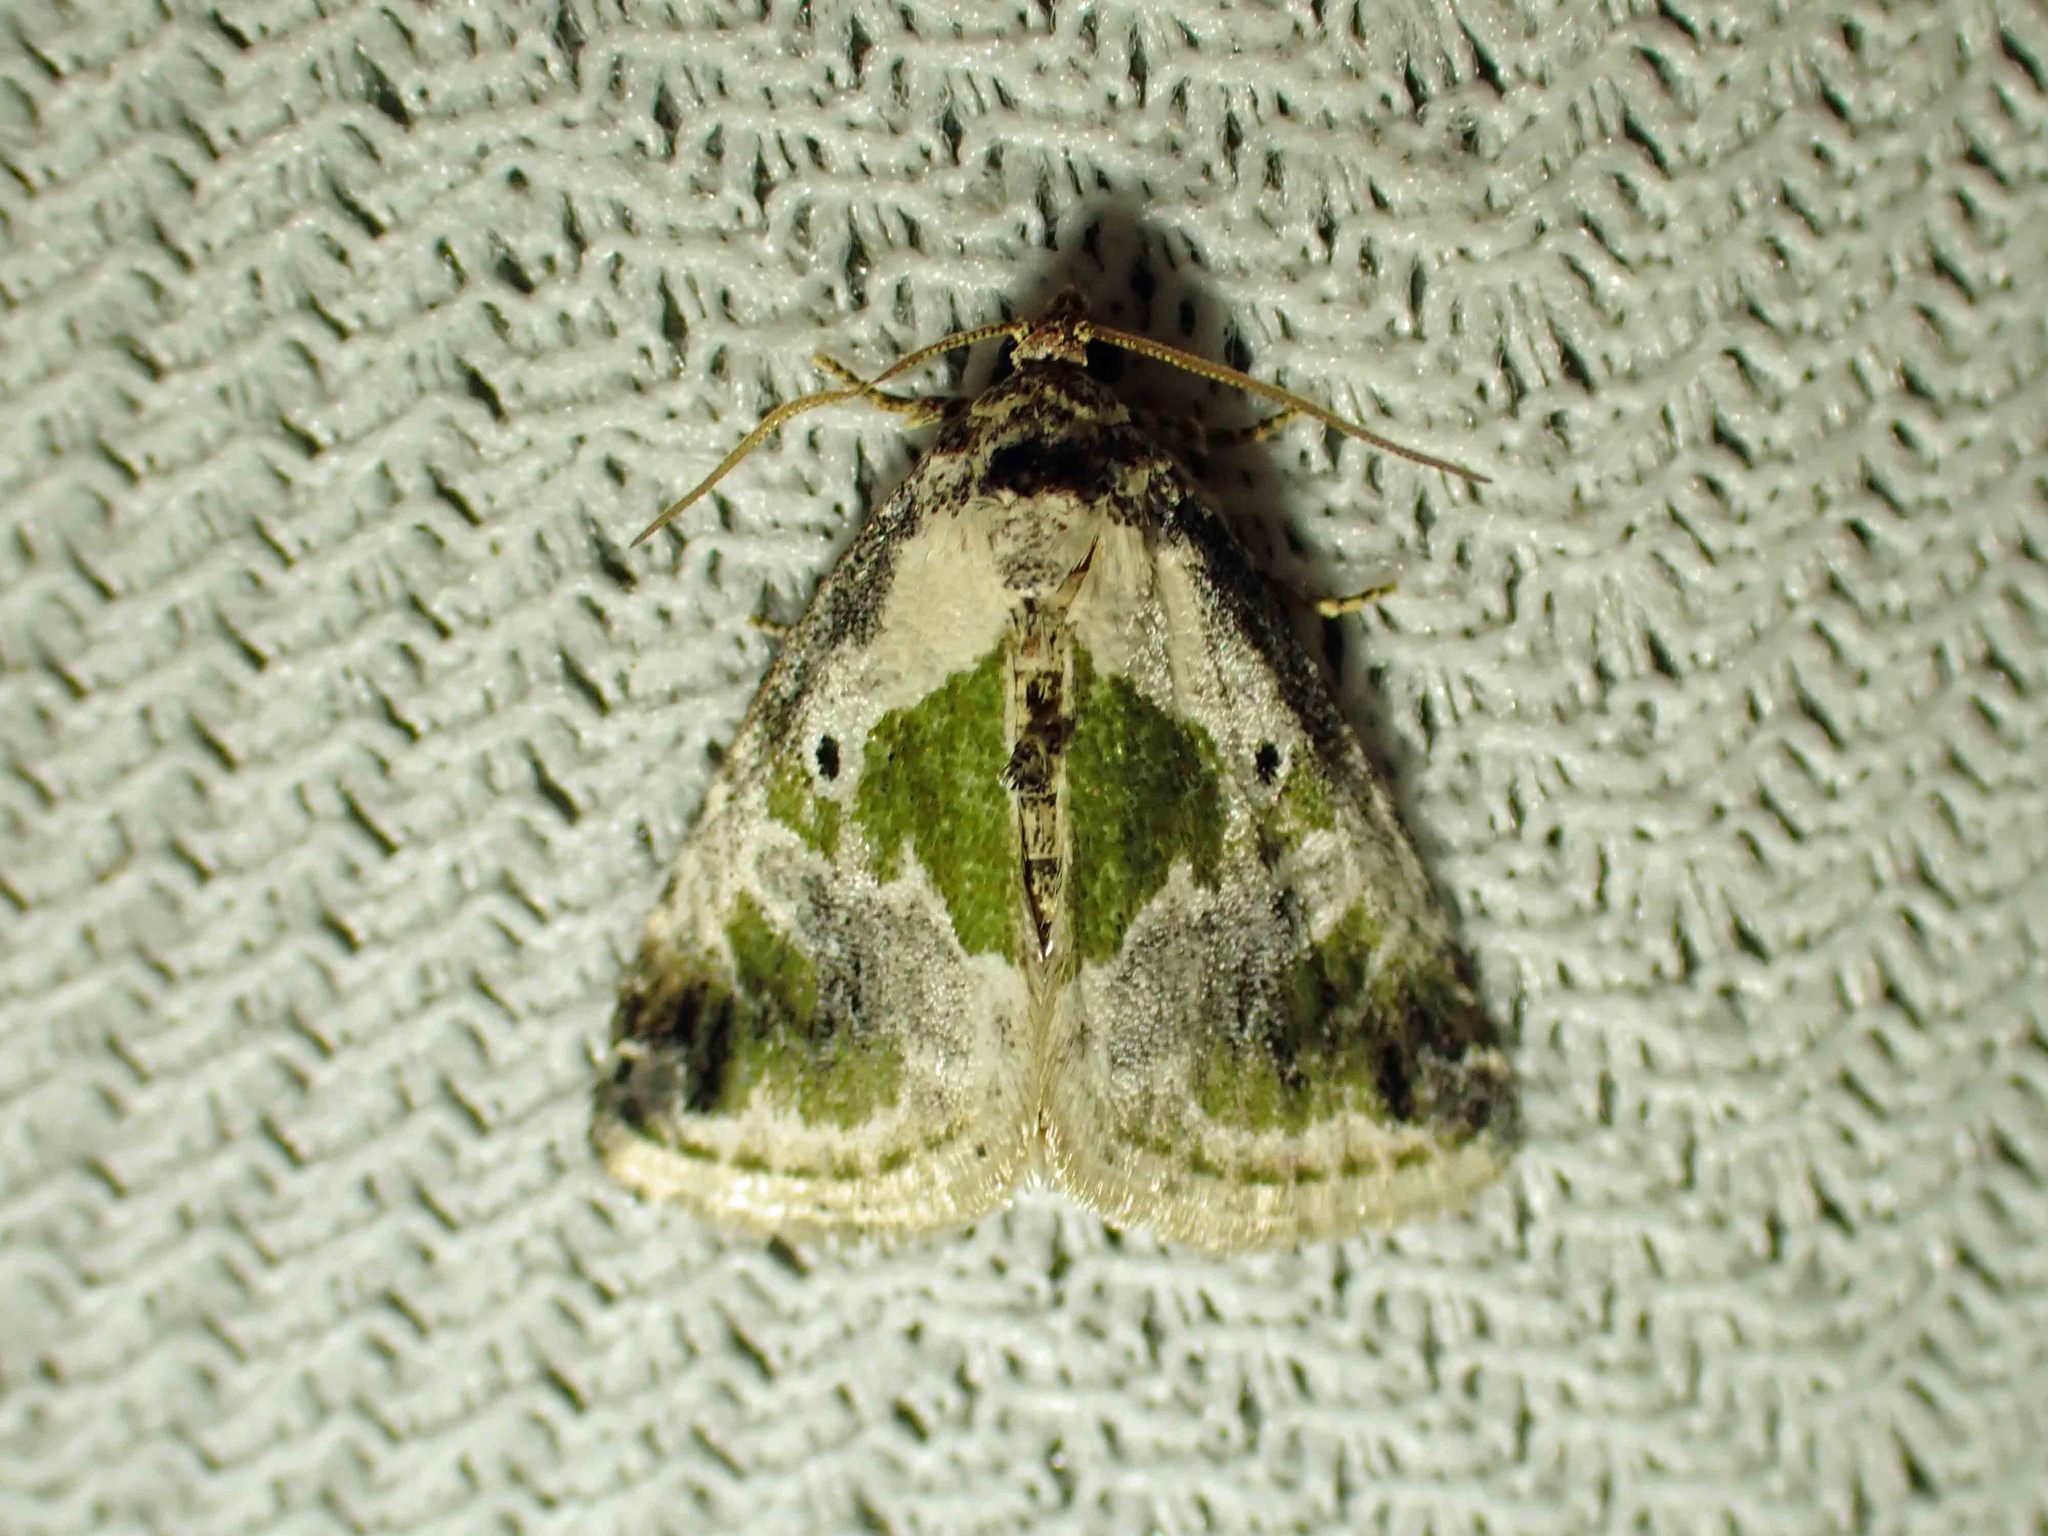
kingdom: Animalia
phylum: Arthropoda
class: Insecta
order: Lepidoptera
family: Noctuidae
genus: Maliattha
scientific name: Maliattha synochitis
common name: Black-dotted glyph
